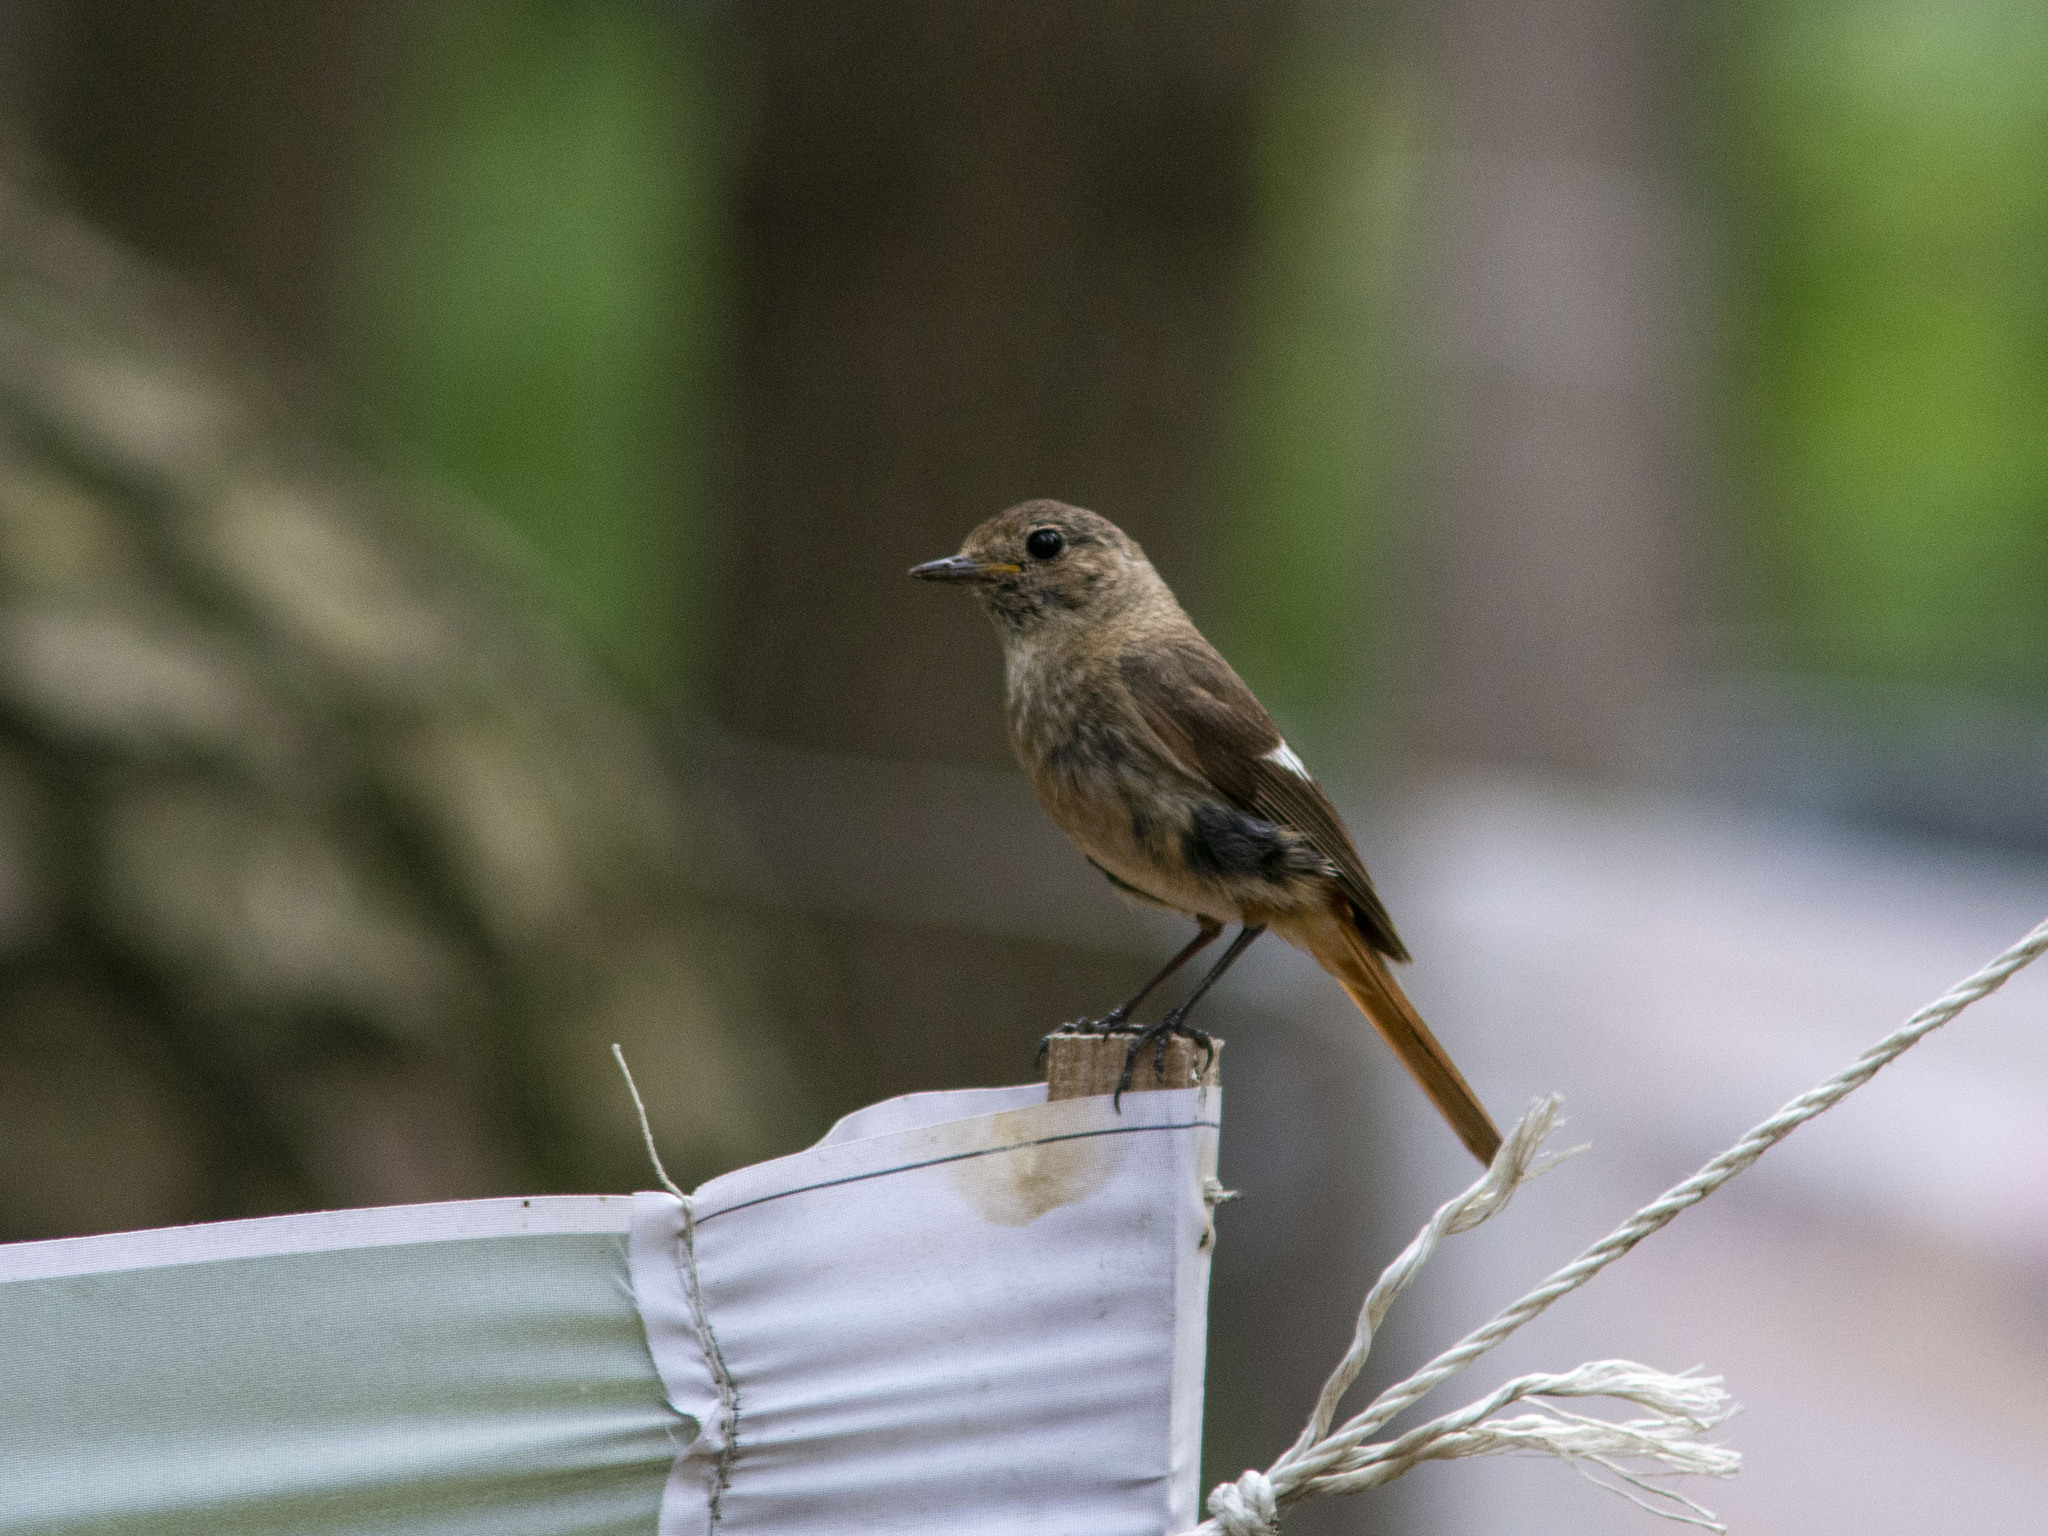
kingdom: Animalia
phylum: Chordata
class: Aves
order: Passeriformes
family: Muscicapidae
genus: Phoenicurus
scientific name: Phoenicurus auroreus
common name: Daurian redstart
